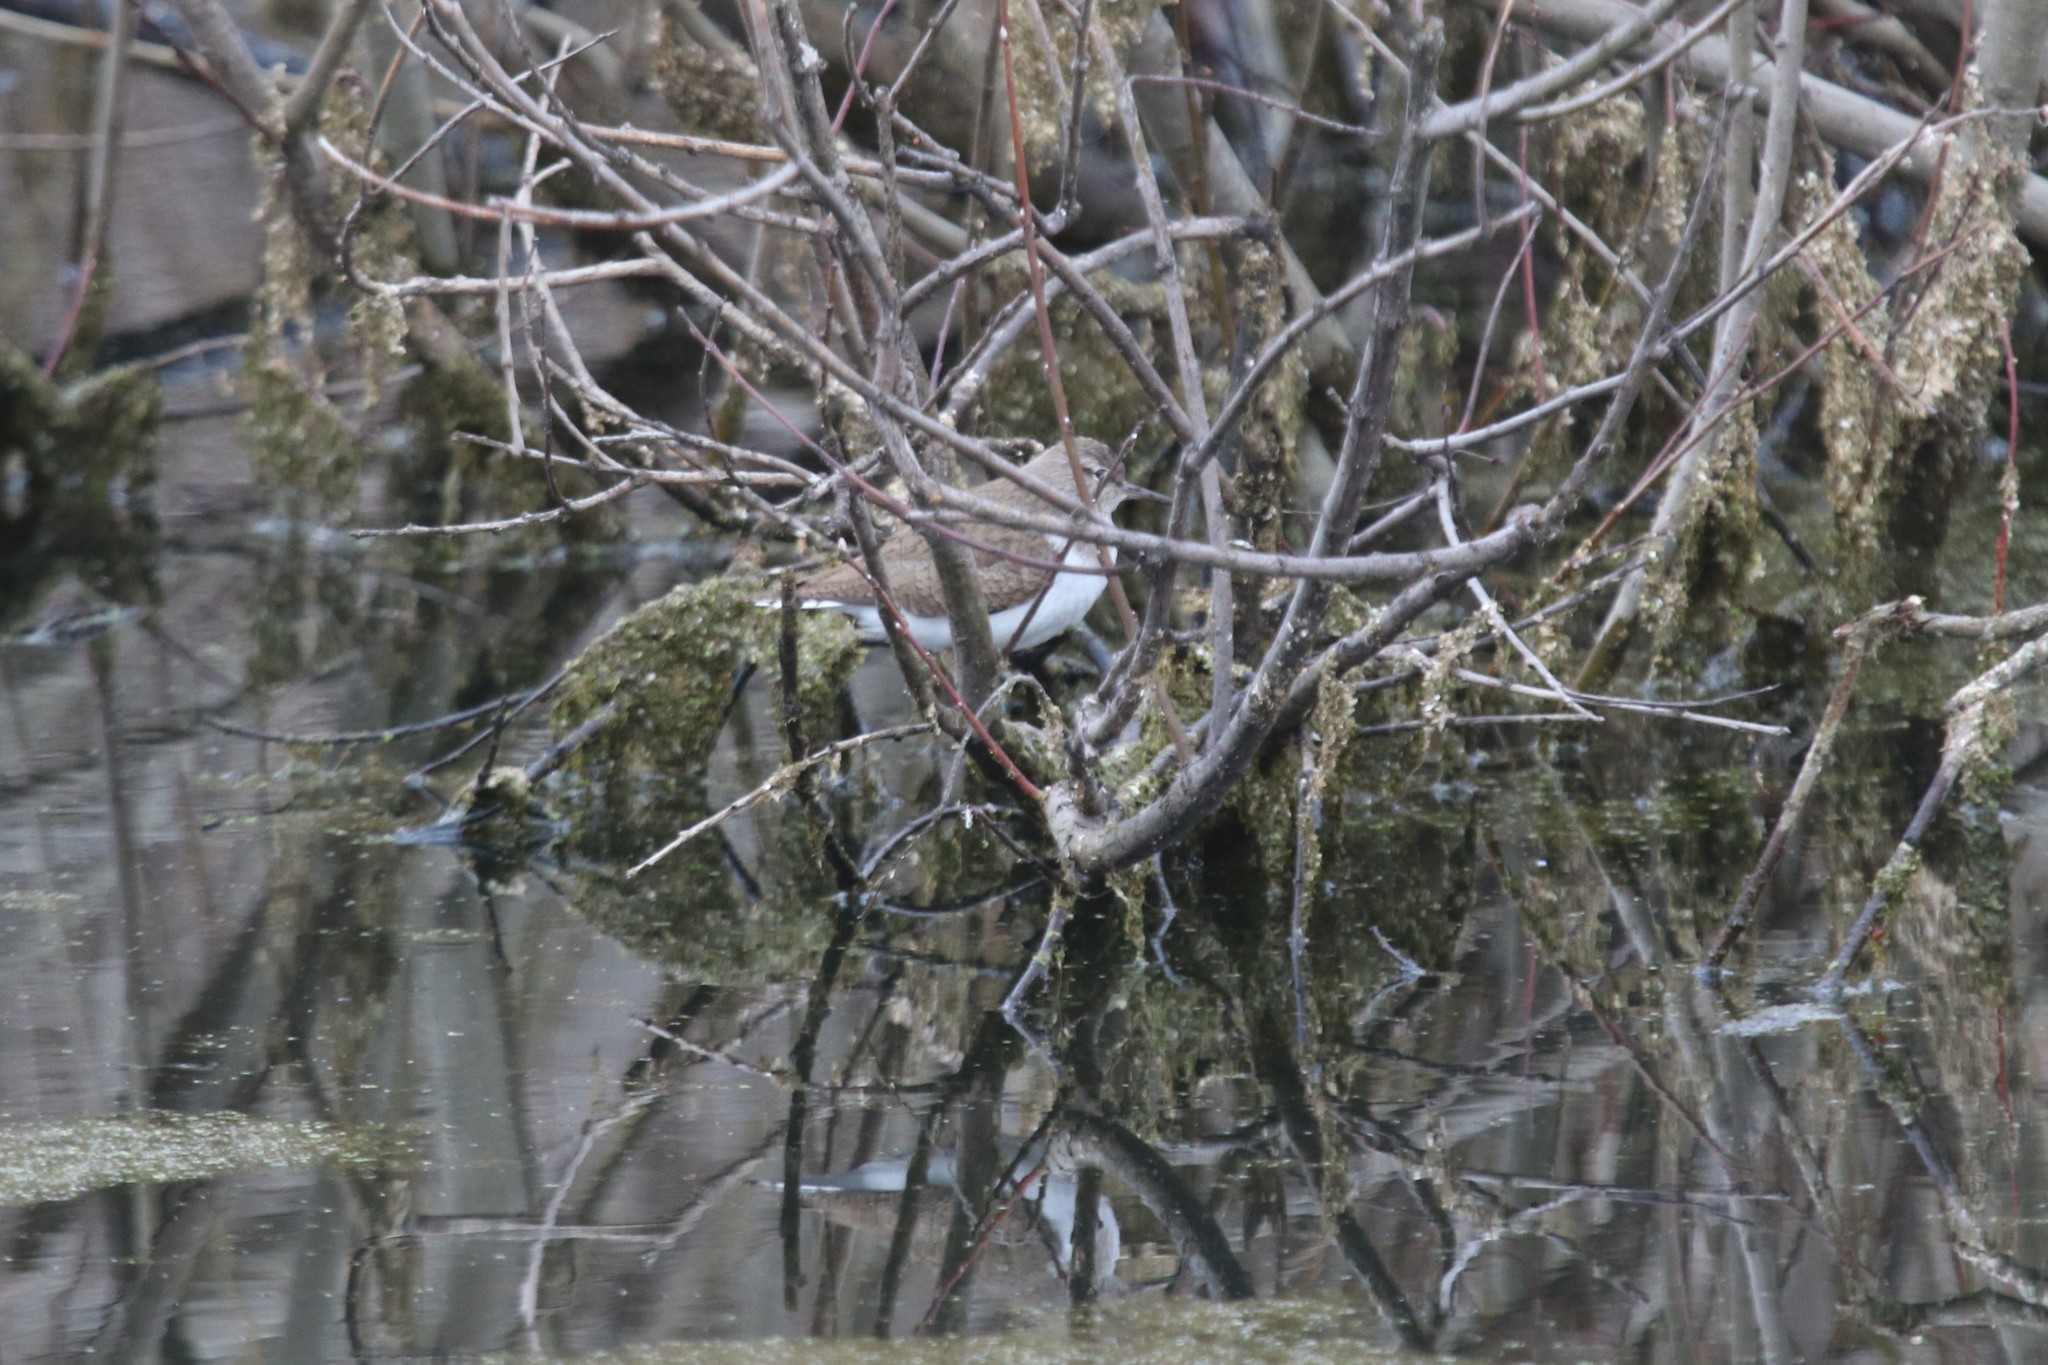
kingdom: Animalia
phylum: Chordata
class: Aves
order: Charadriiformes
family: Scolopacidae
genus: Actitis
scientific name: Actitis hypoleucos
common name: Common sandpiper
